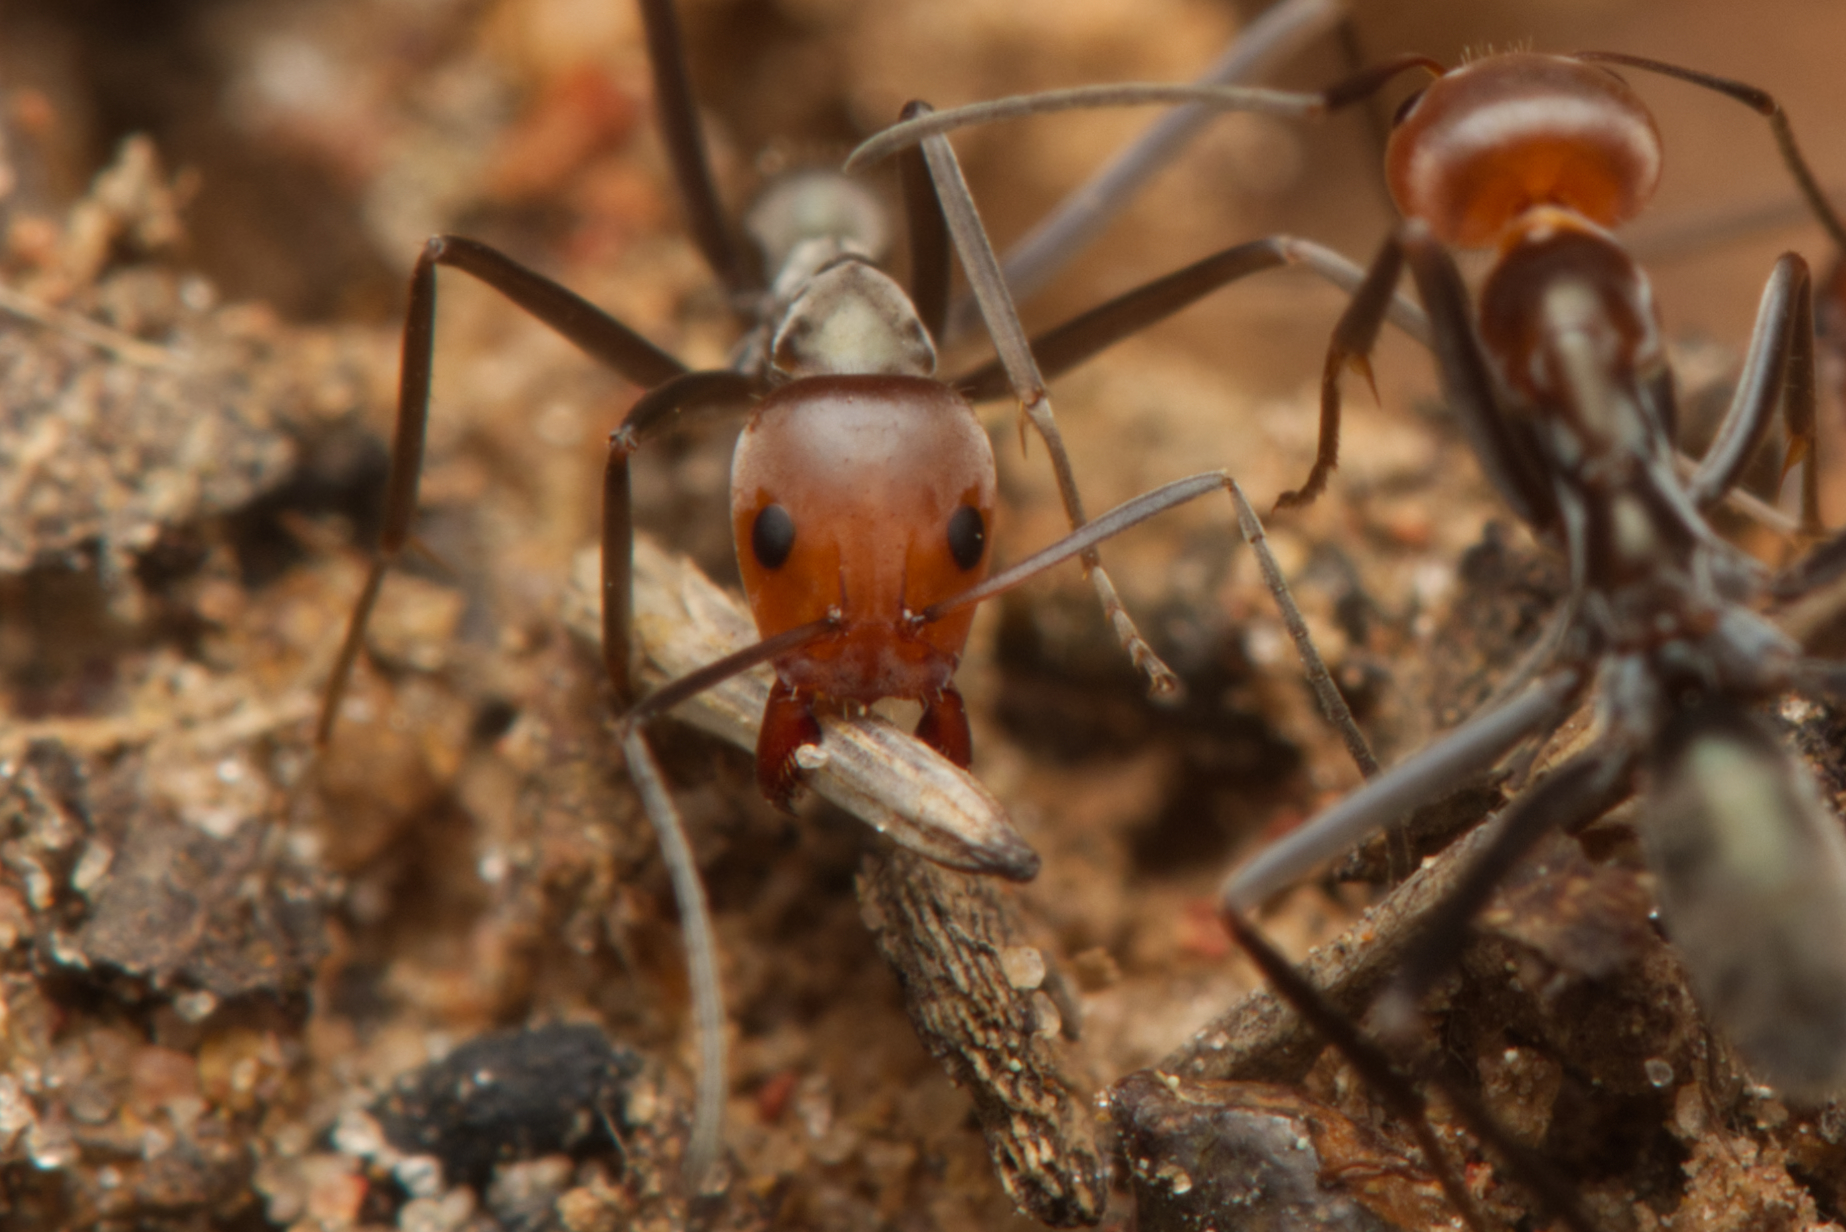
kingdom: Animalia
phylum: Arthropoda
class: Insecta
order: Hymenoptera
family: Formicidae
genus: Iridomyrmex
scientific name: Iridomyrmex
